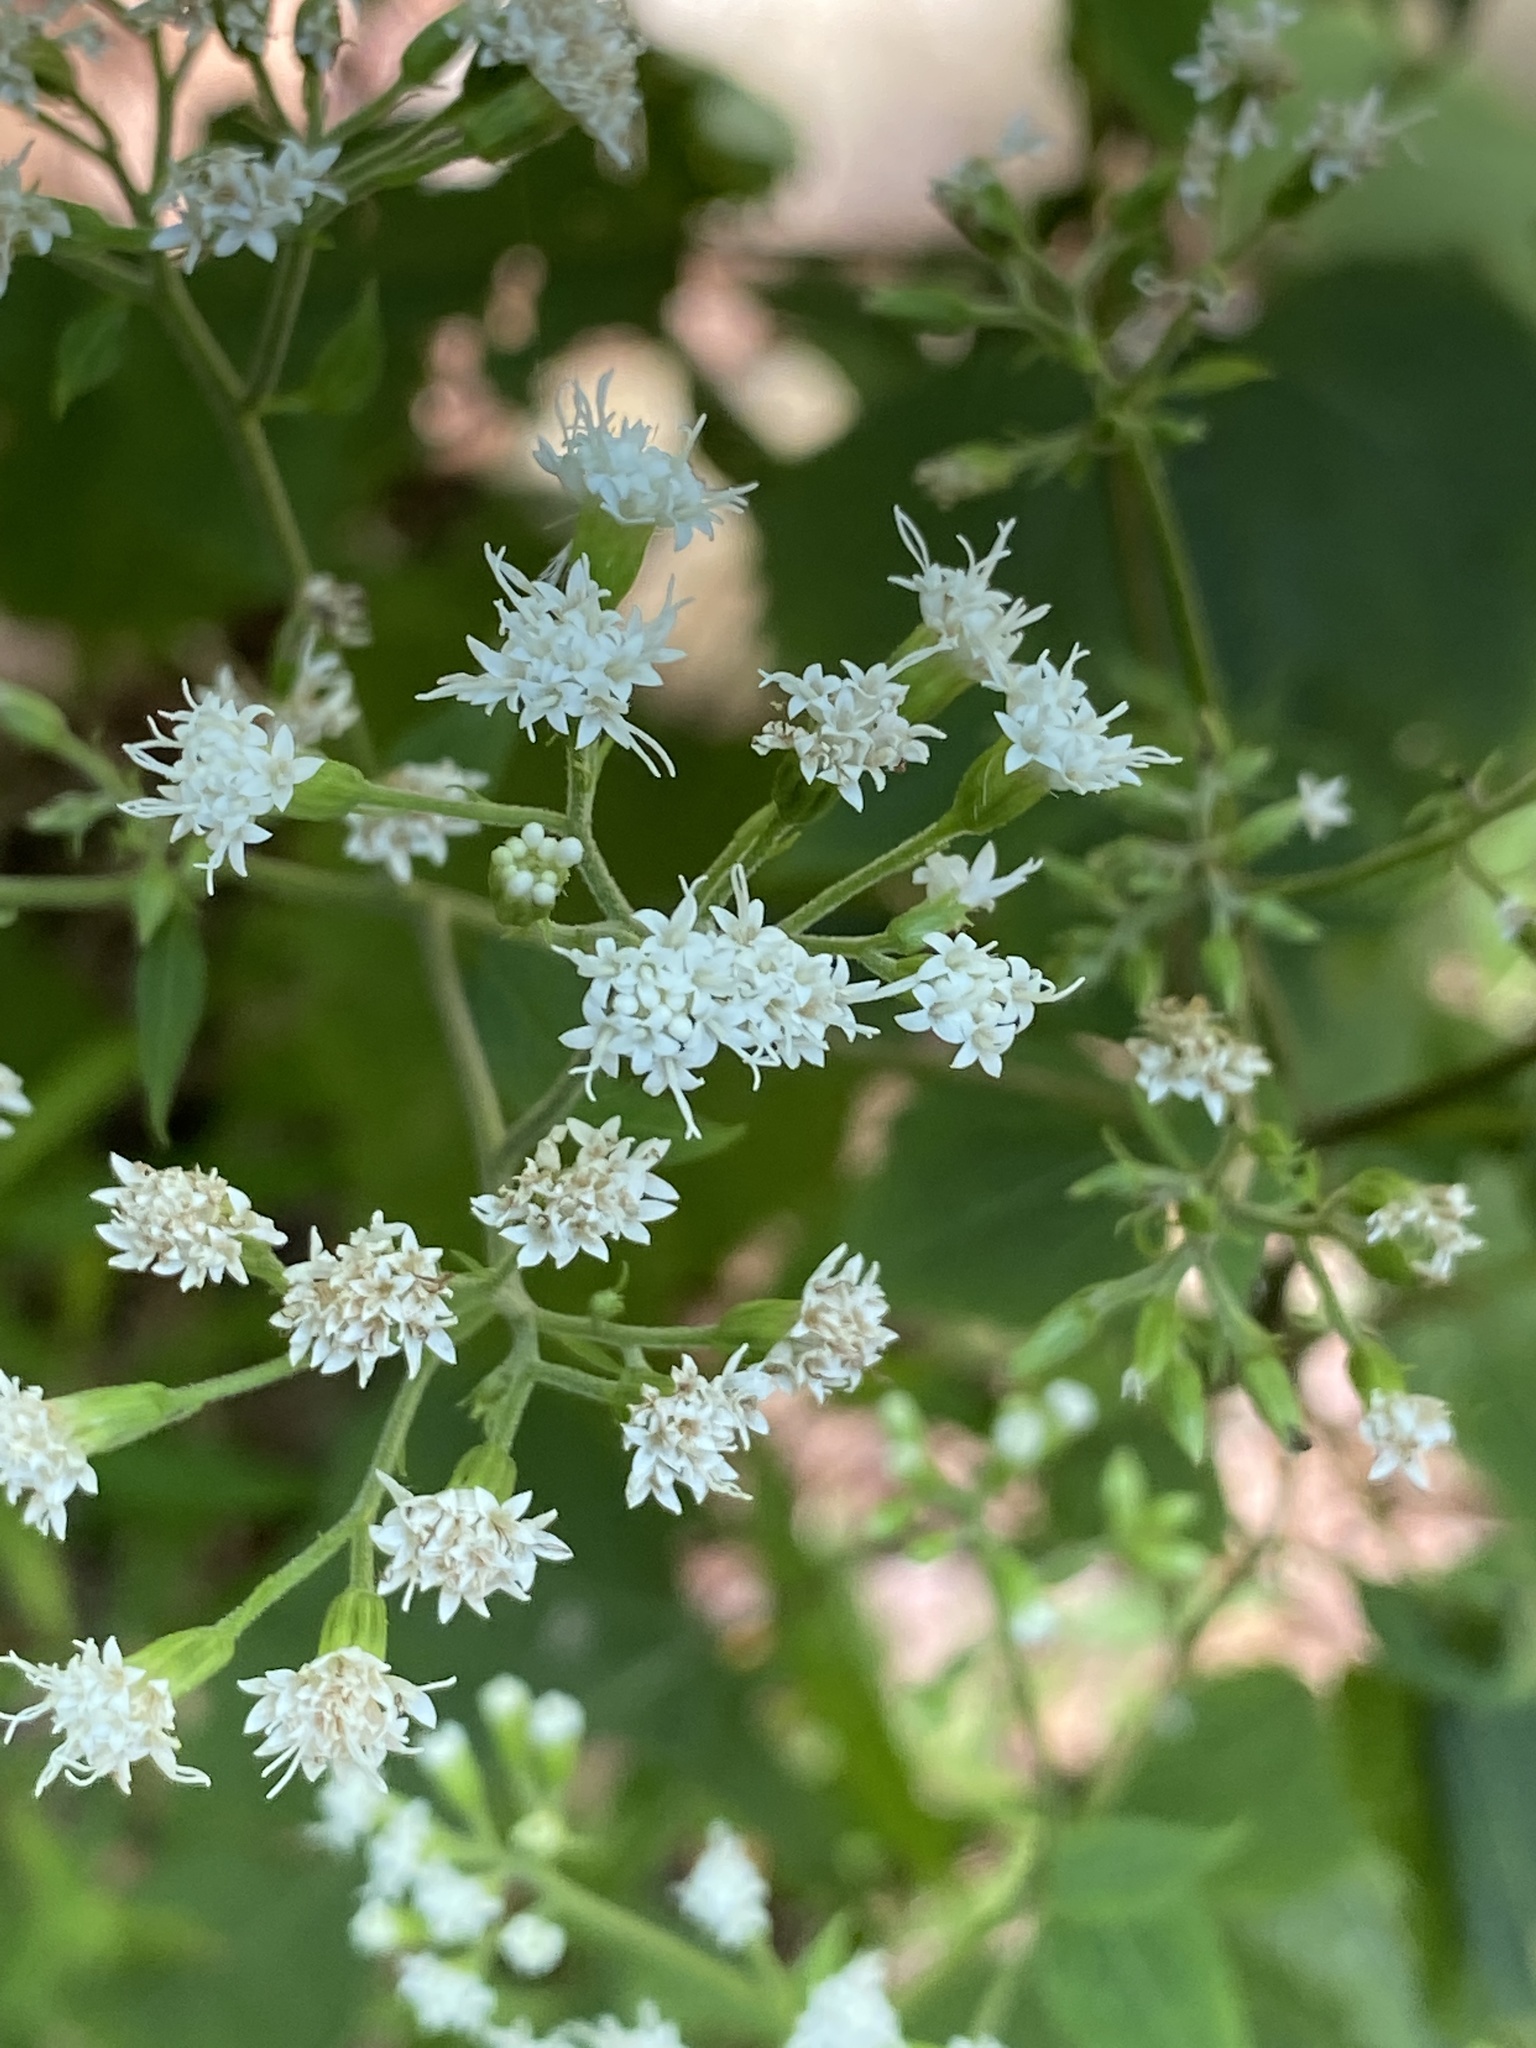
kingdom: Plantae
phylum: Tracheophyta
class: Magnoliopsida
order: Asterales
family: Asteraceae
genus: Ageratina
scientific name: Ageratina altissima
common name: White snakeroot
